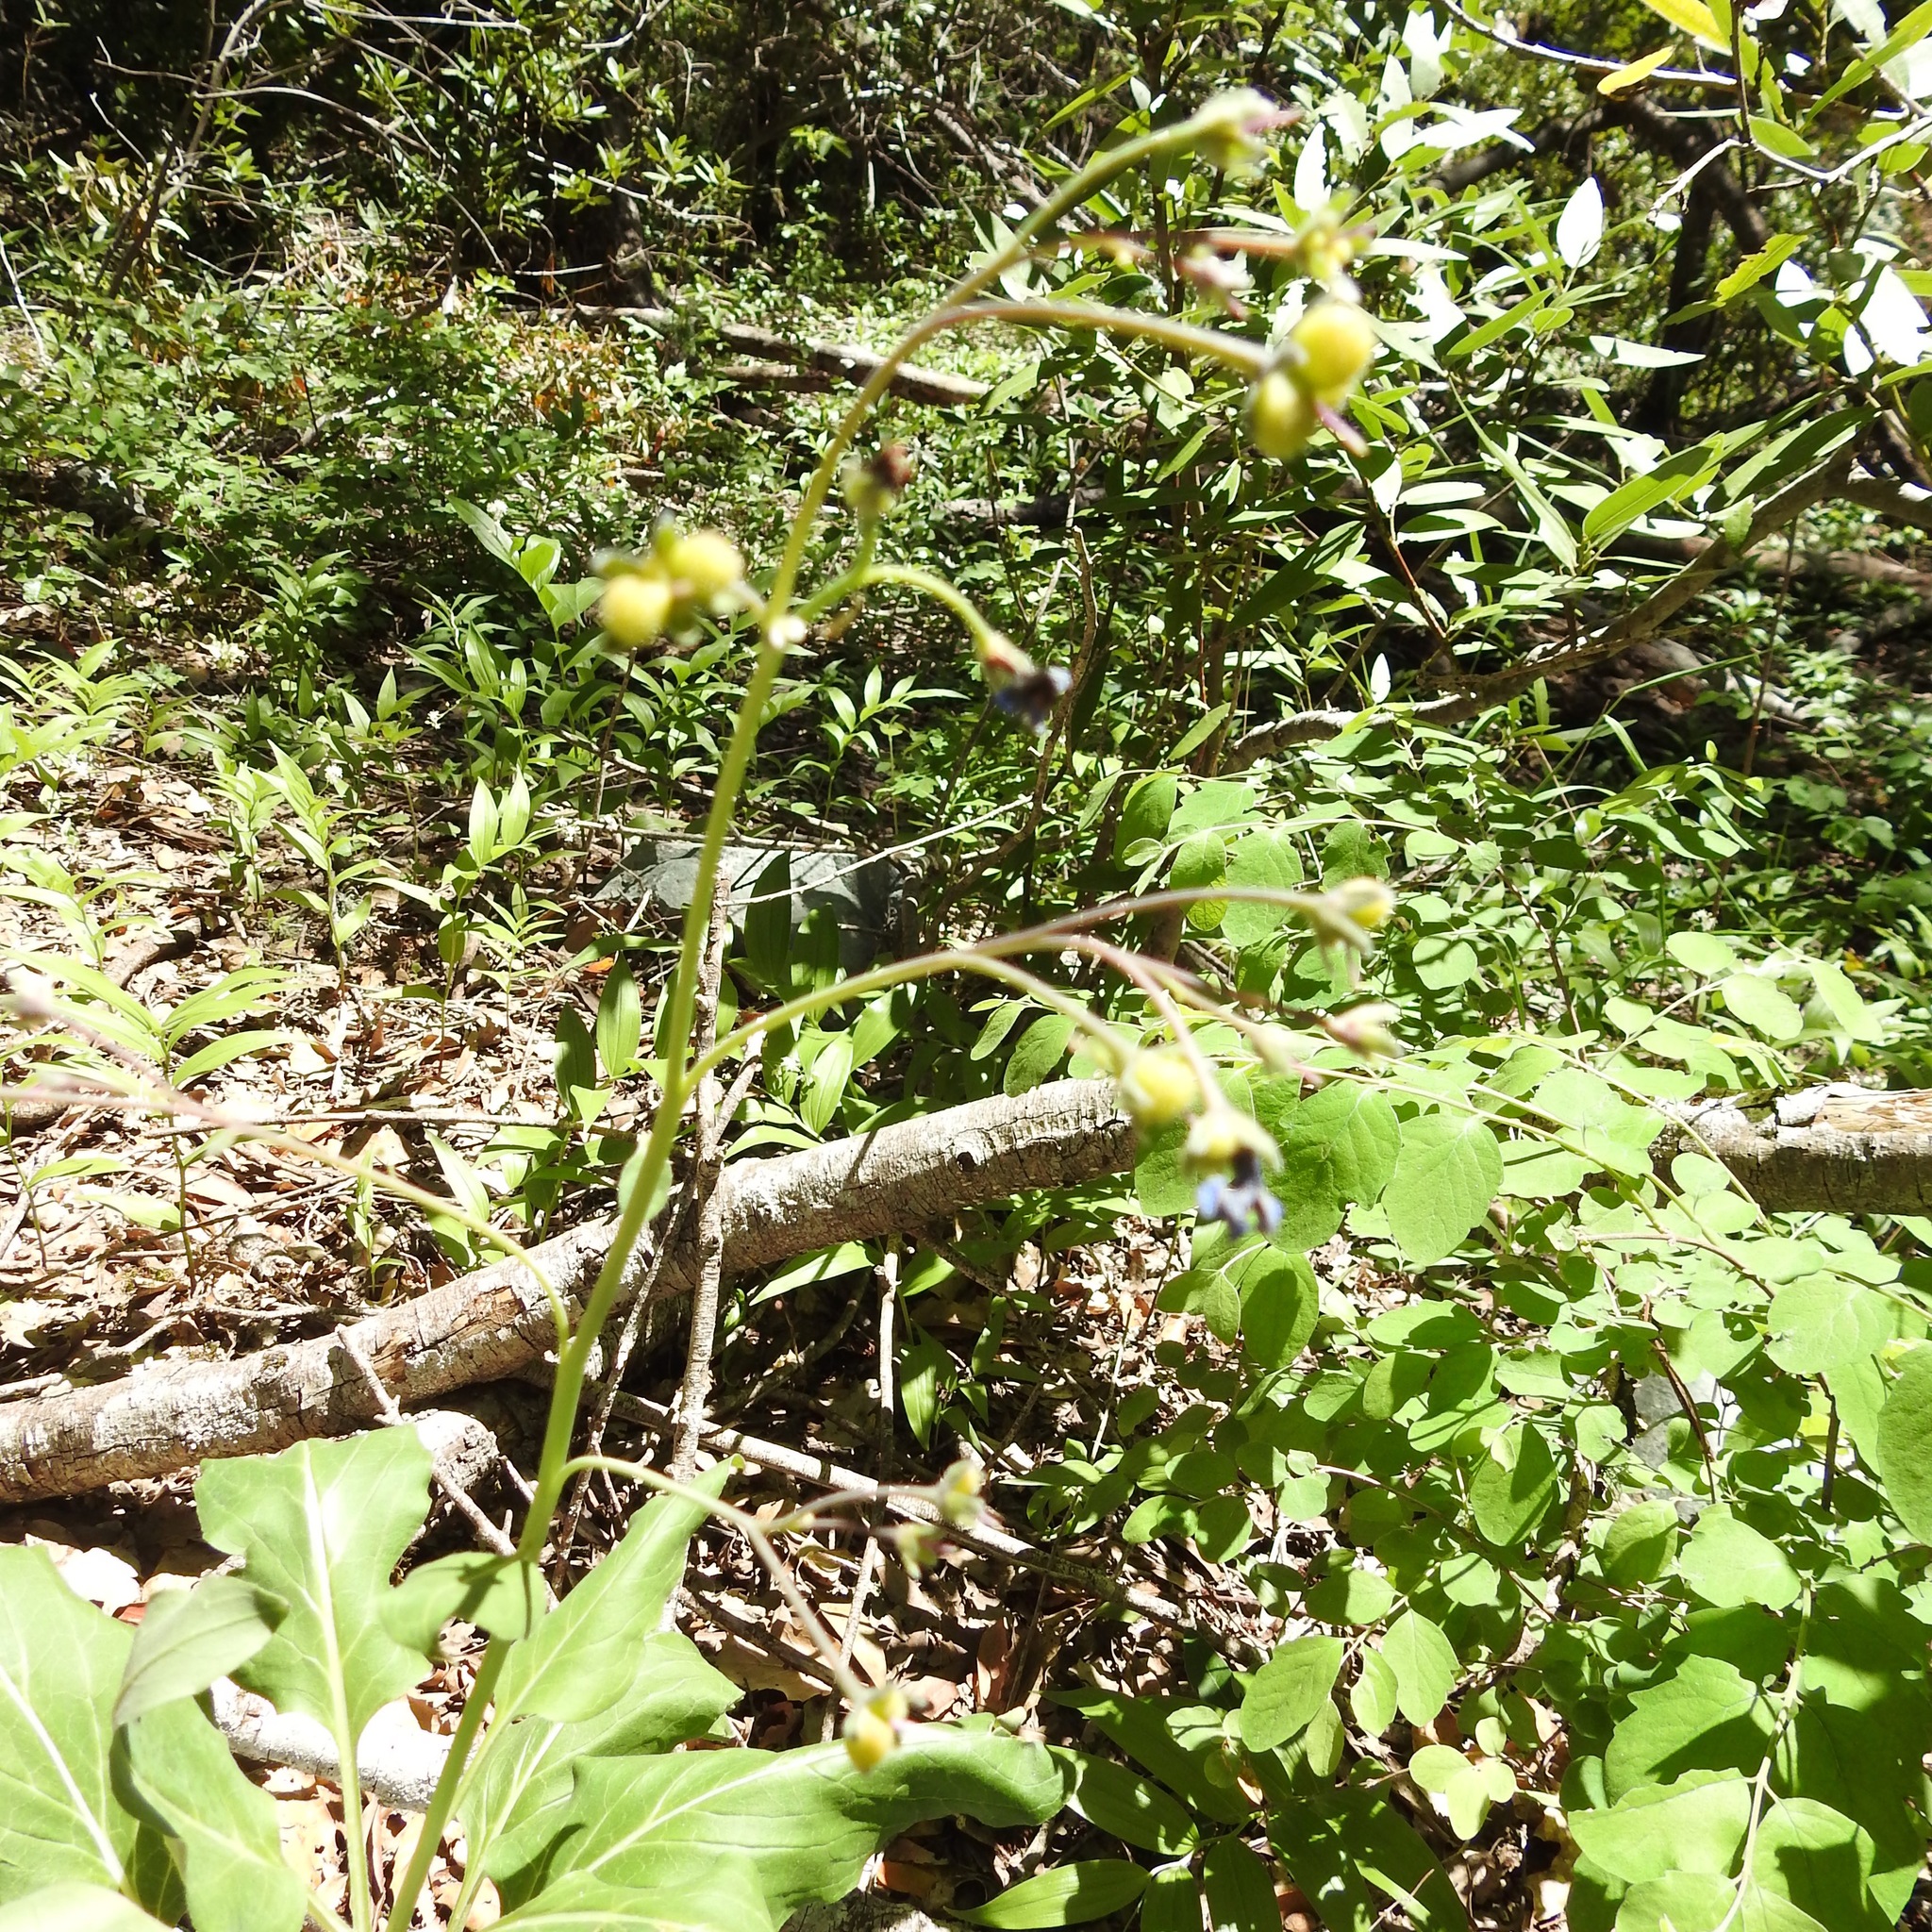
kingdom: Plantae
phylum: Tracheophyta
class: Magnoliopsida
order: Boraginales
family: Boraginaceae
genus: Adelinia
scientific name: Adelinia grande
